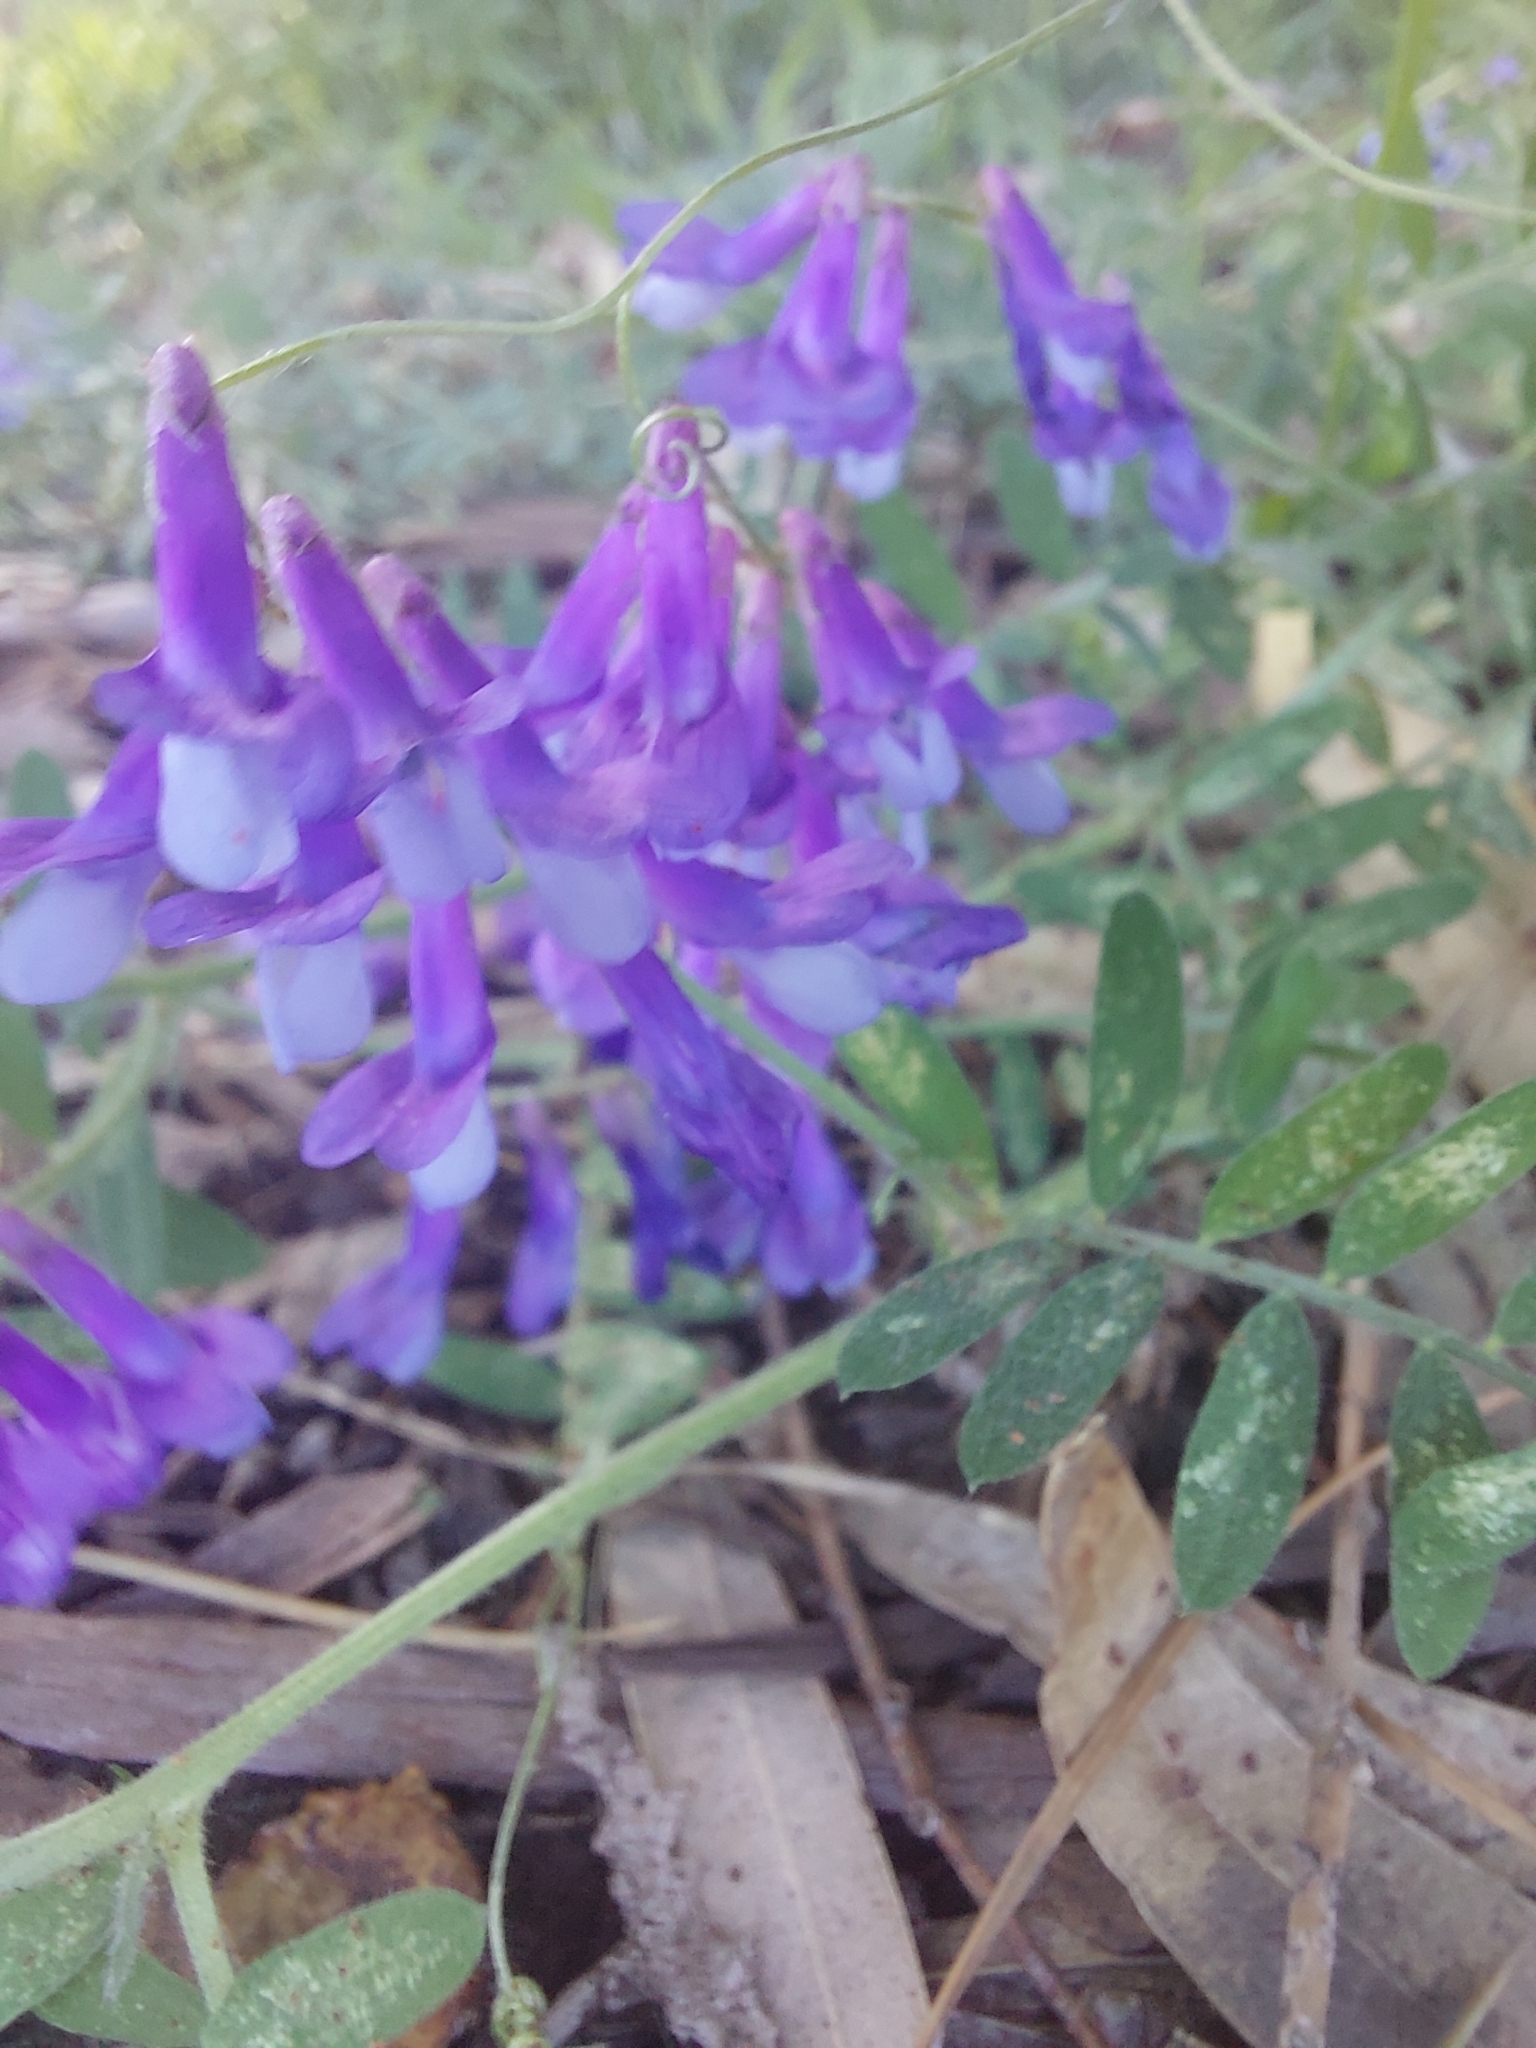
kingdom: Plantae
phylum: Tracheophyta
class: Magnoliopsida
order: Fabales
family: Fabaceae
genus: Vicia
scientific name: Vicia villosa
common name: Fodder vetch
